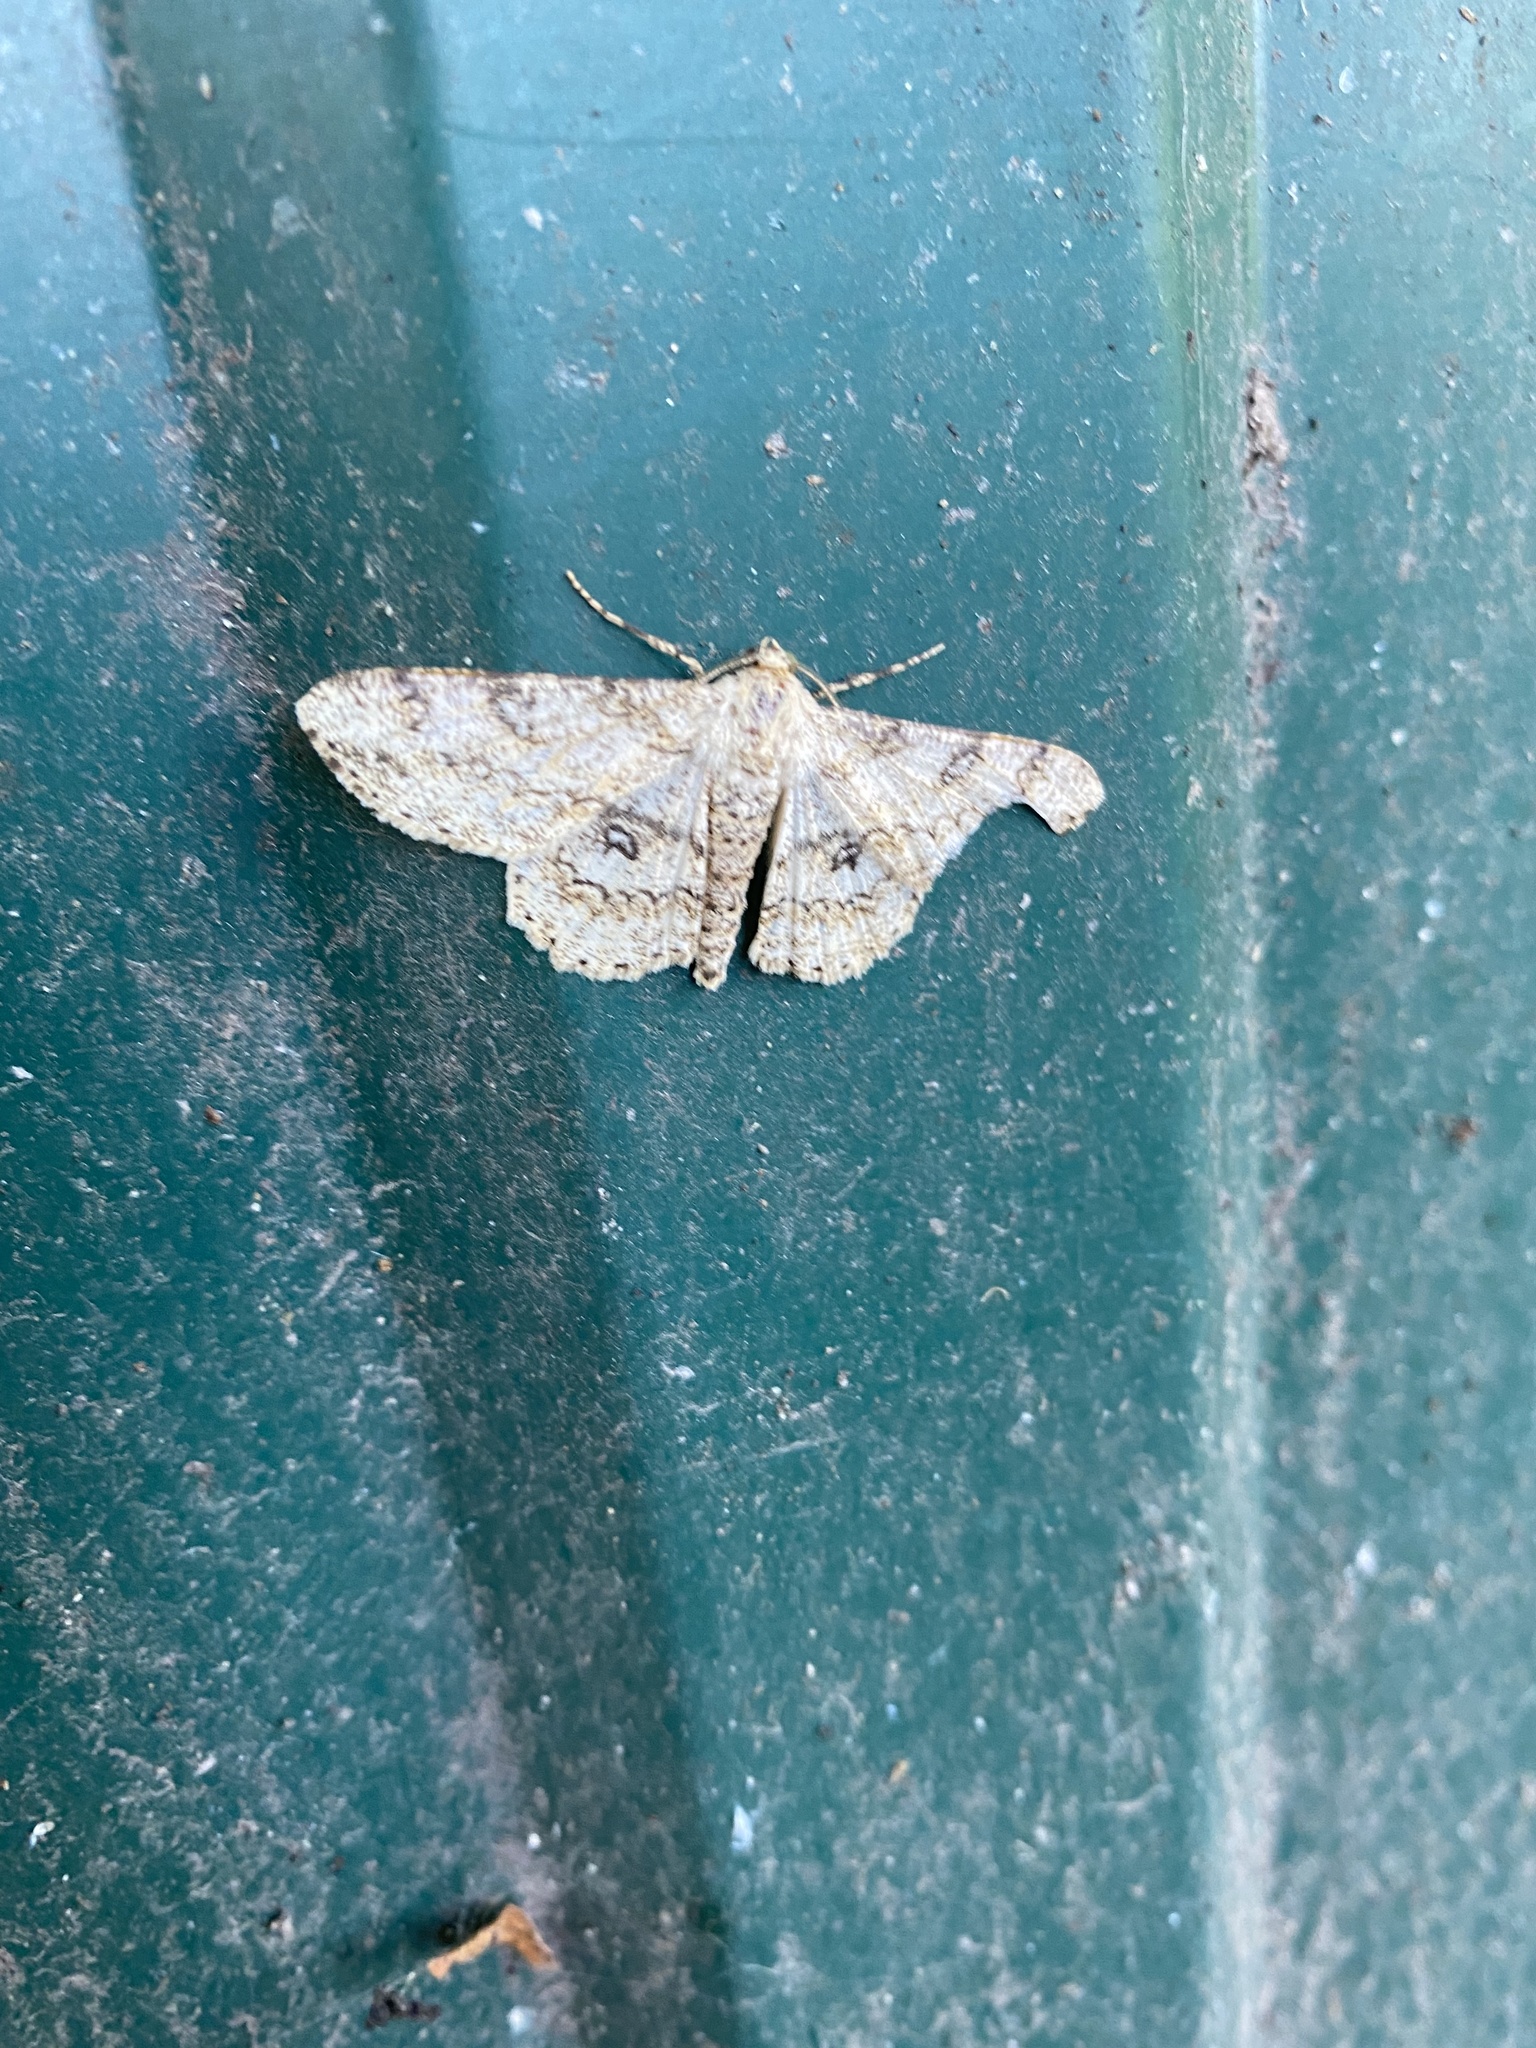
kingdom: Animalia
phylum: Arthropoda
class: Insecta
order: Lepidoptera
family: Geometridae
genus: Ascotis
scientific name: Ascotis selenaria
